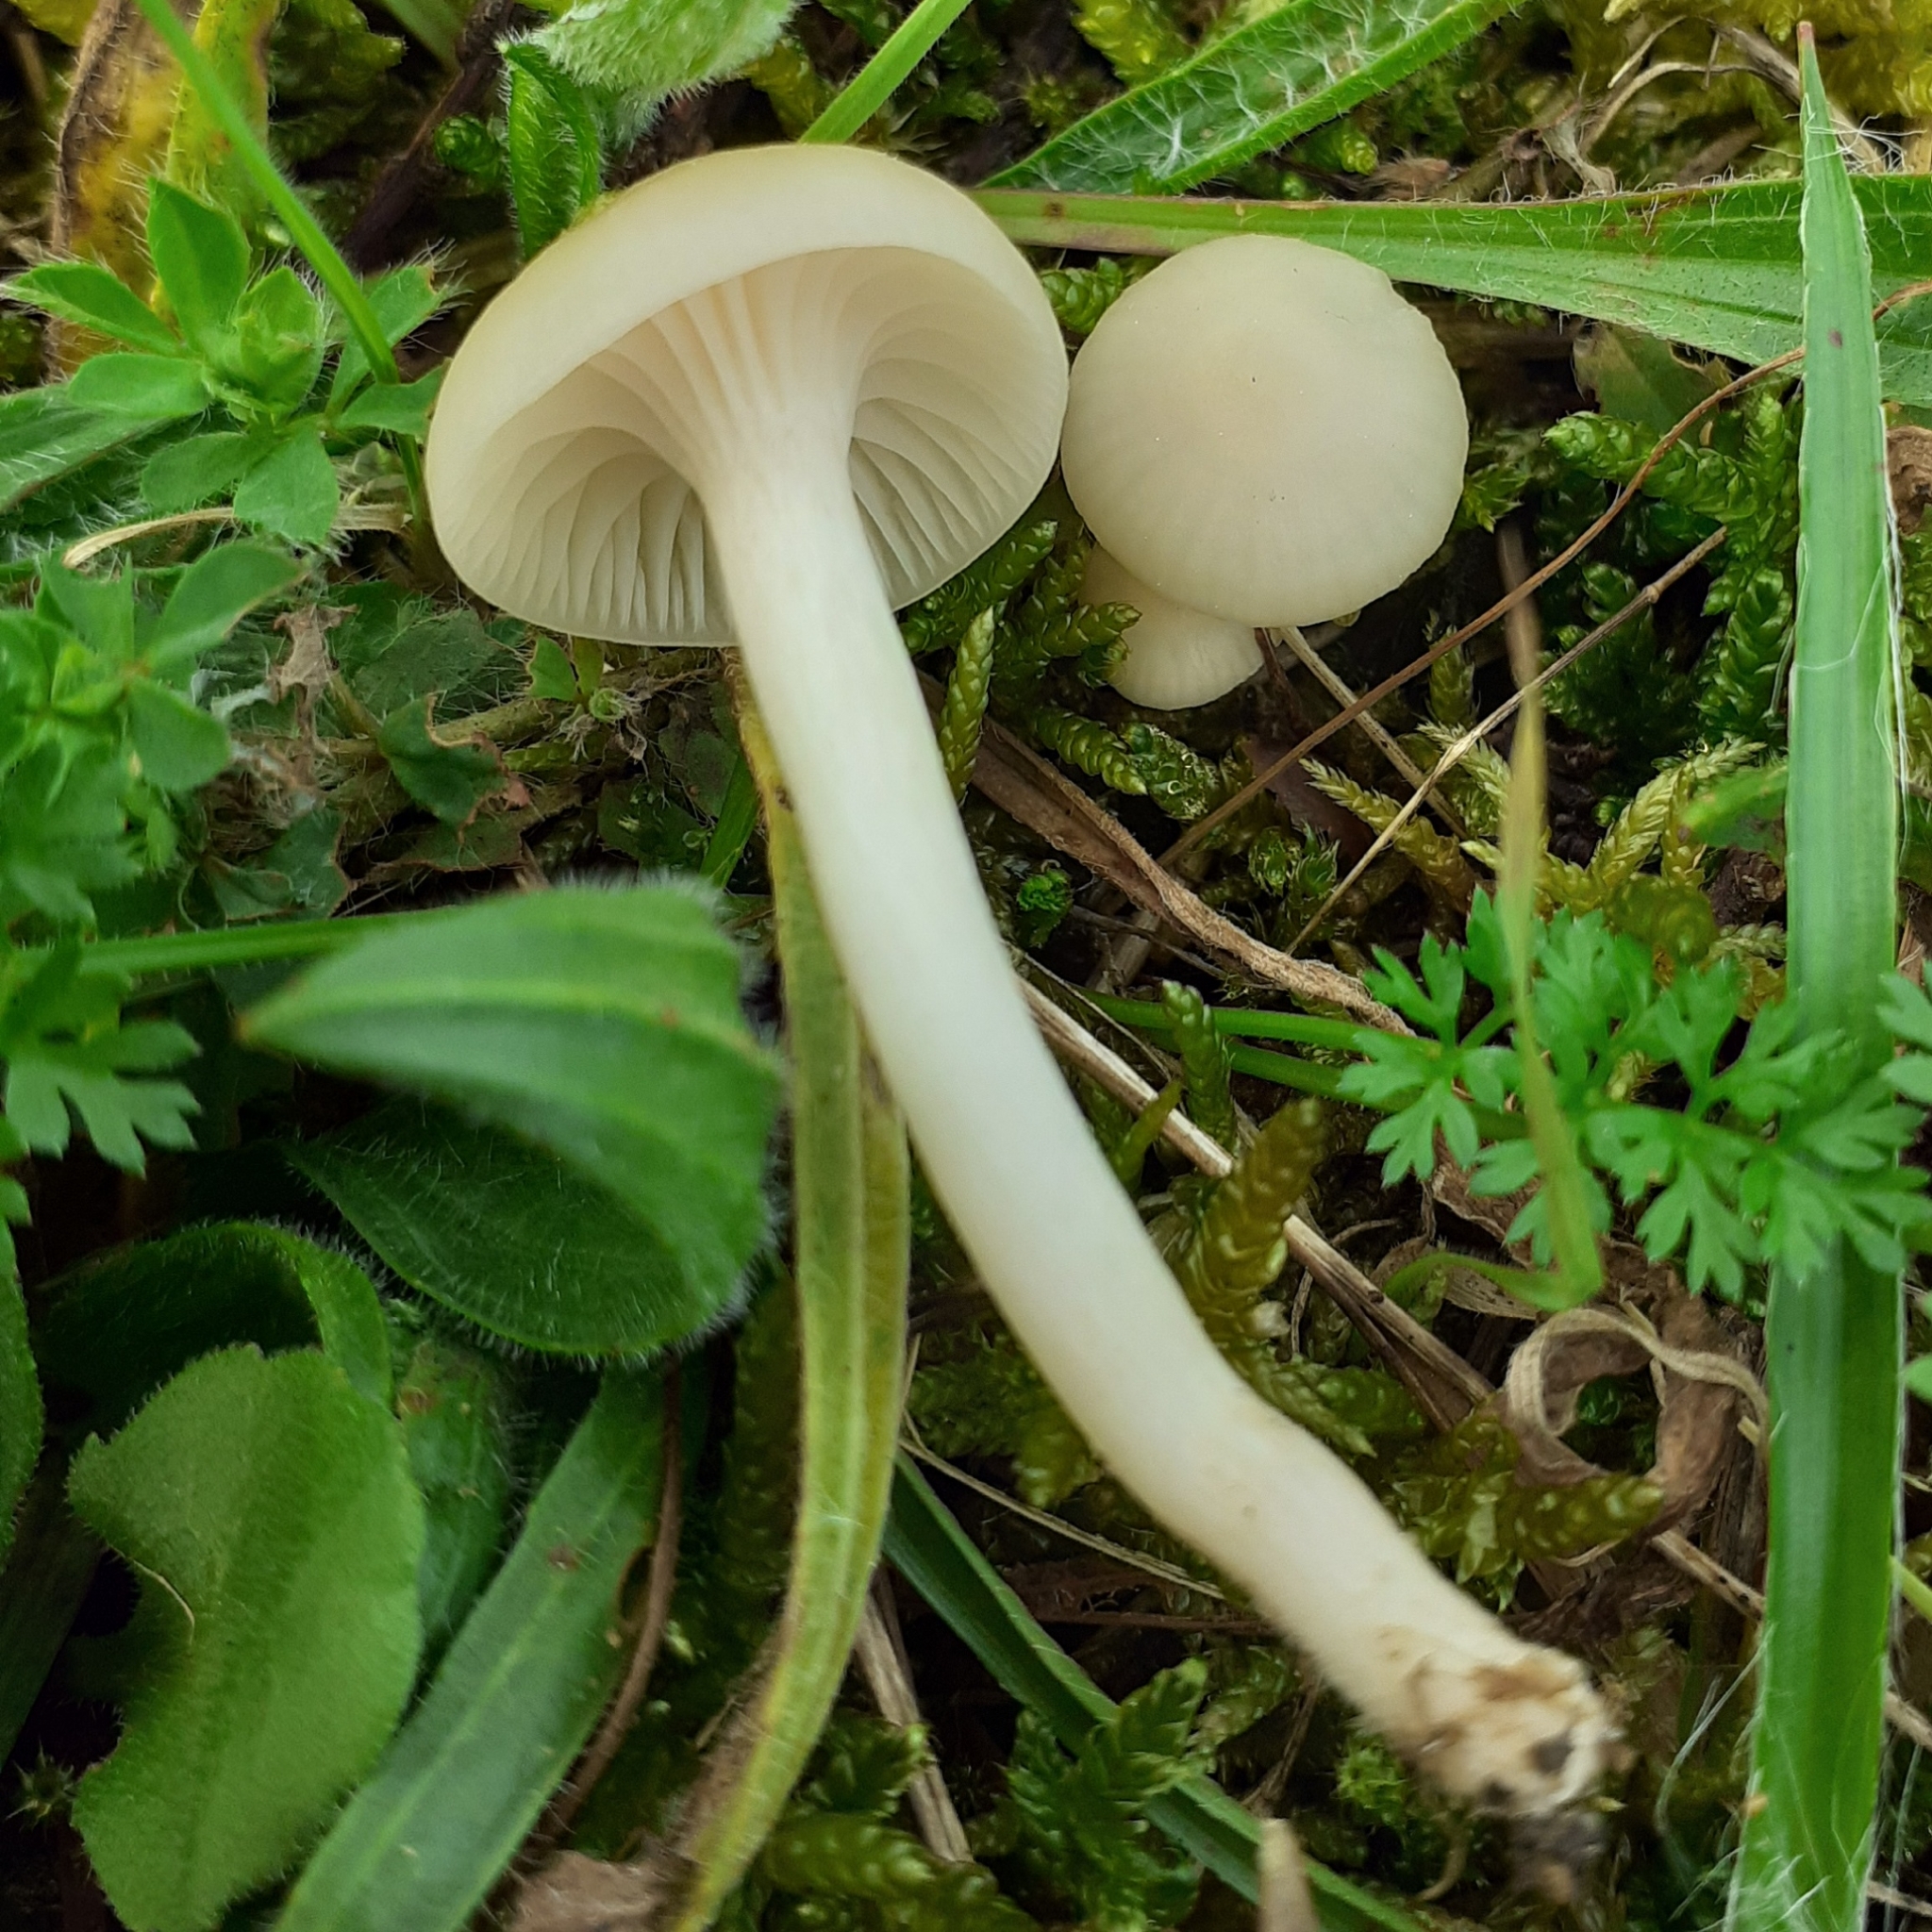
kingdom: Fungi
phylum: Basidiomycota
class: Agaricomycetes
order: Agaricales
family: Hygrophoraceae
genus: Cuphophyllus
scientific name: Cuphophyllus virgineus
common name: Snowy waxcap
